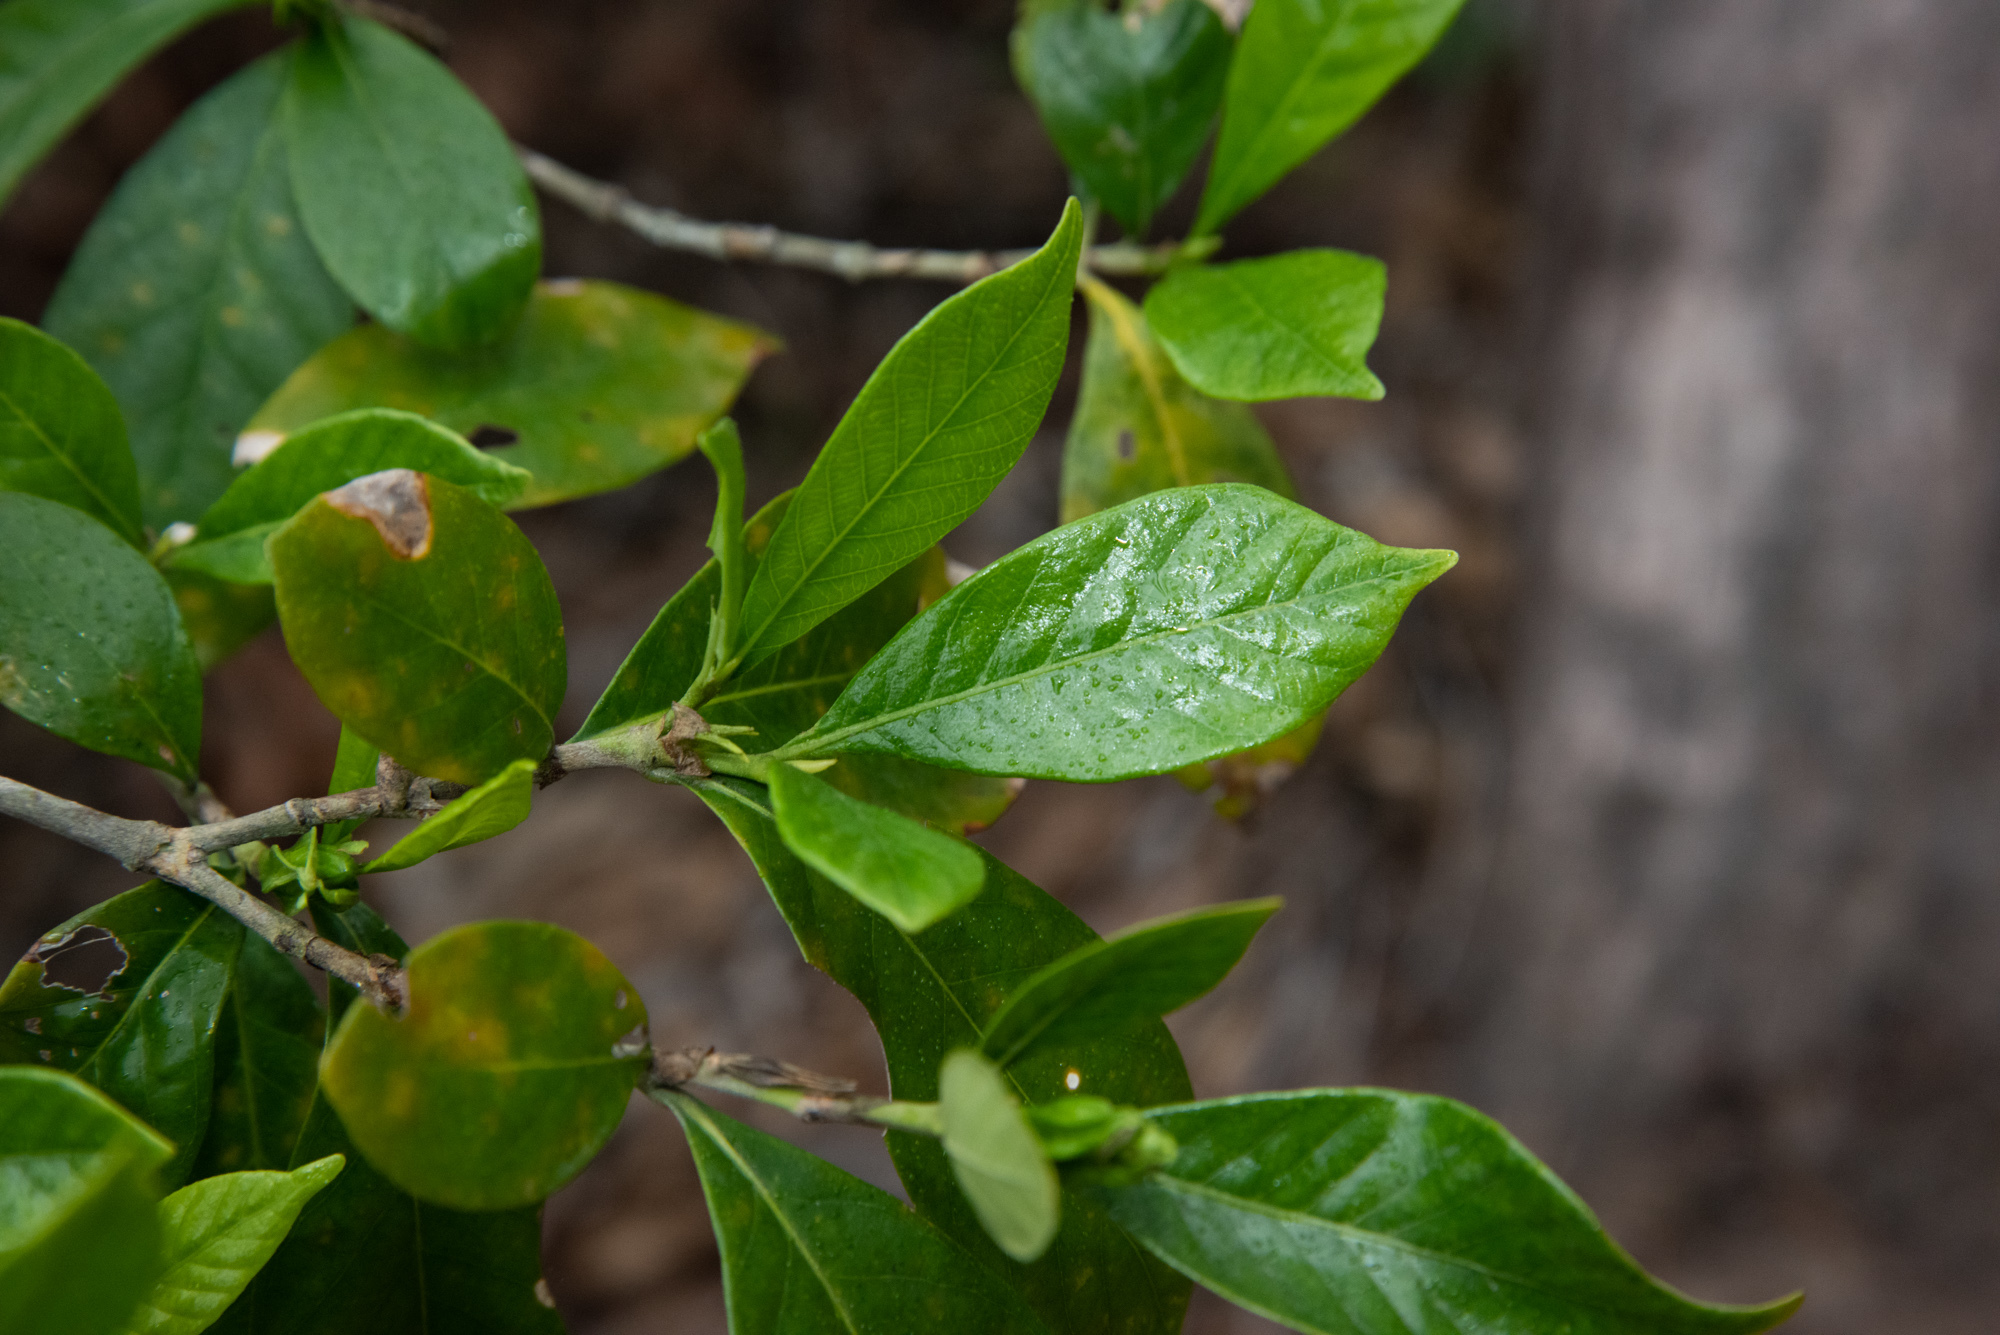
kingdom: Plantae
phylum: Tracheophyta
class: Magnoliopsida
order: Gentianales
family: Rubiaceae
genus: Gardenia
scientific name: Gardenia jasminoides
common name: Cape-jasmine
